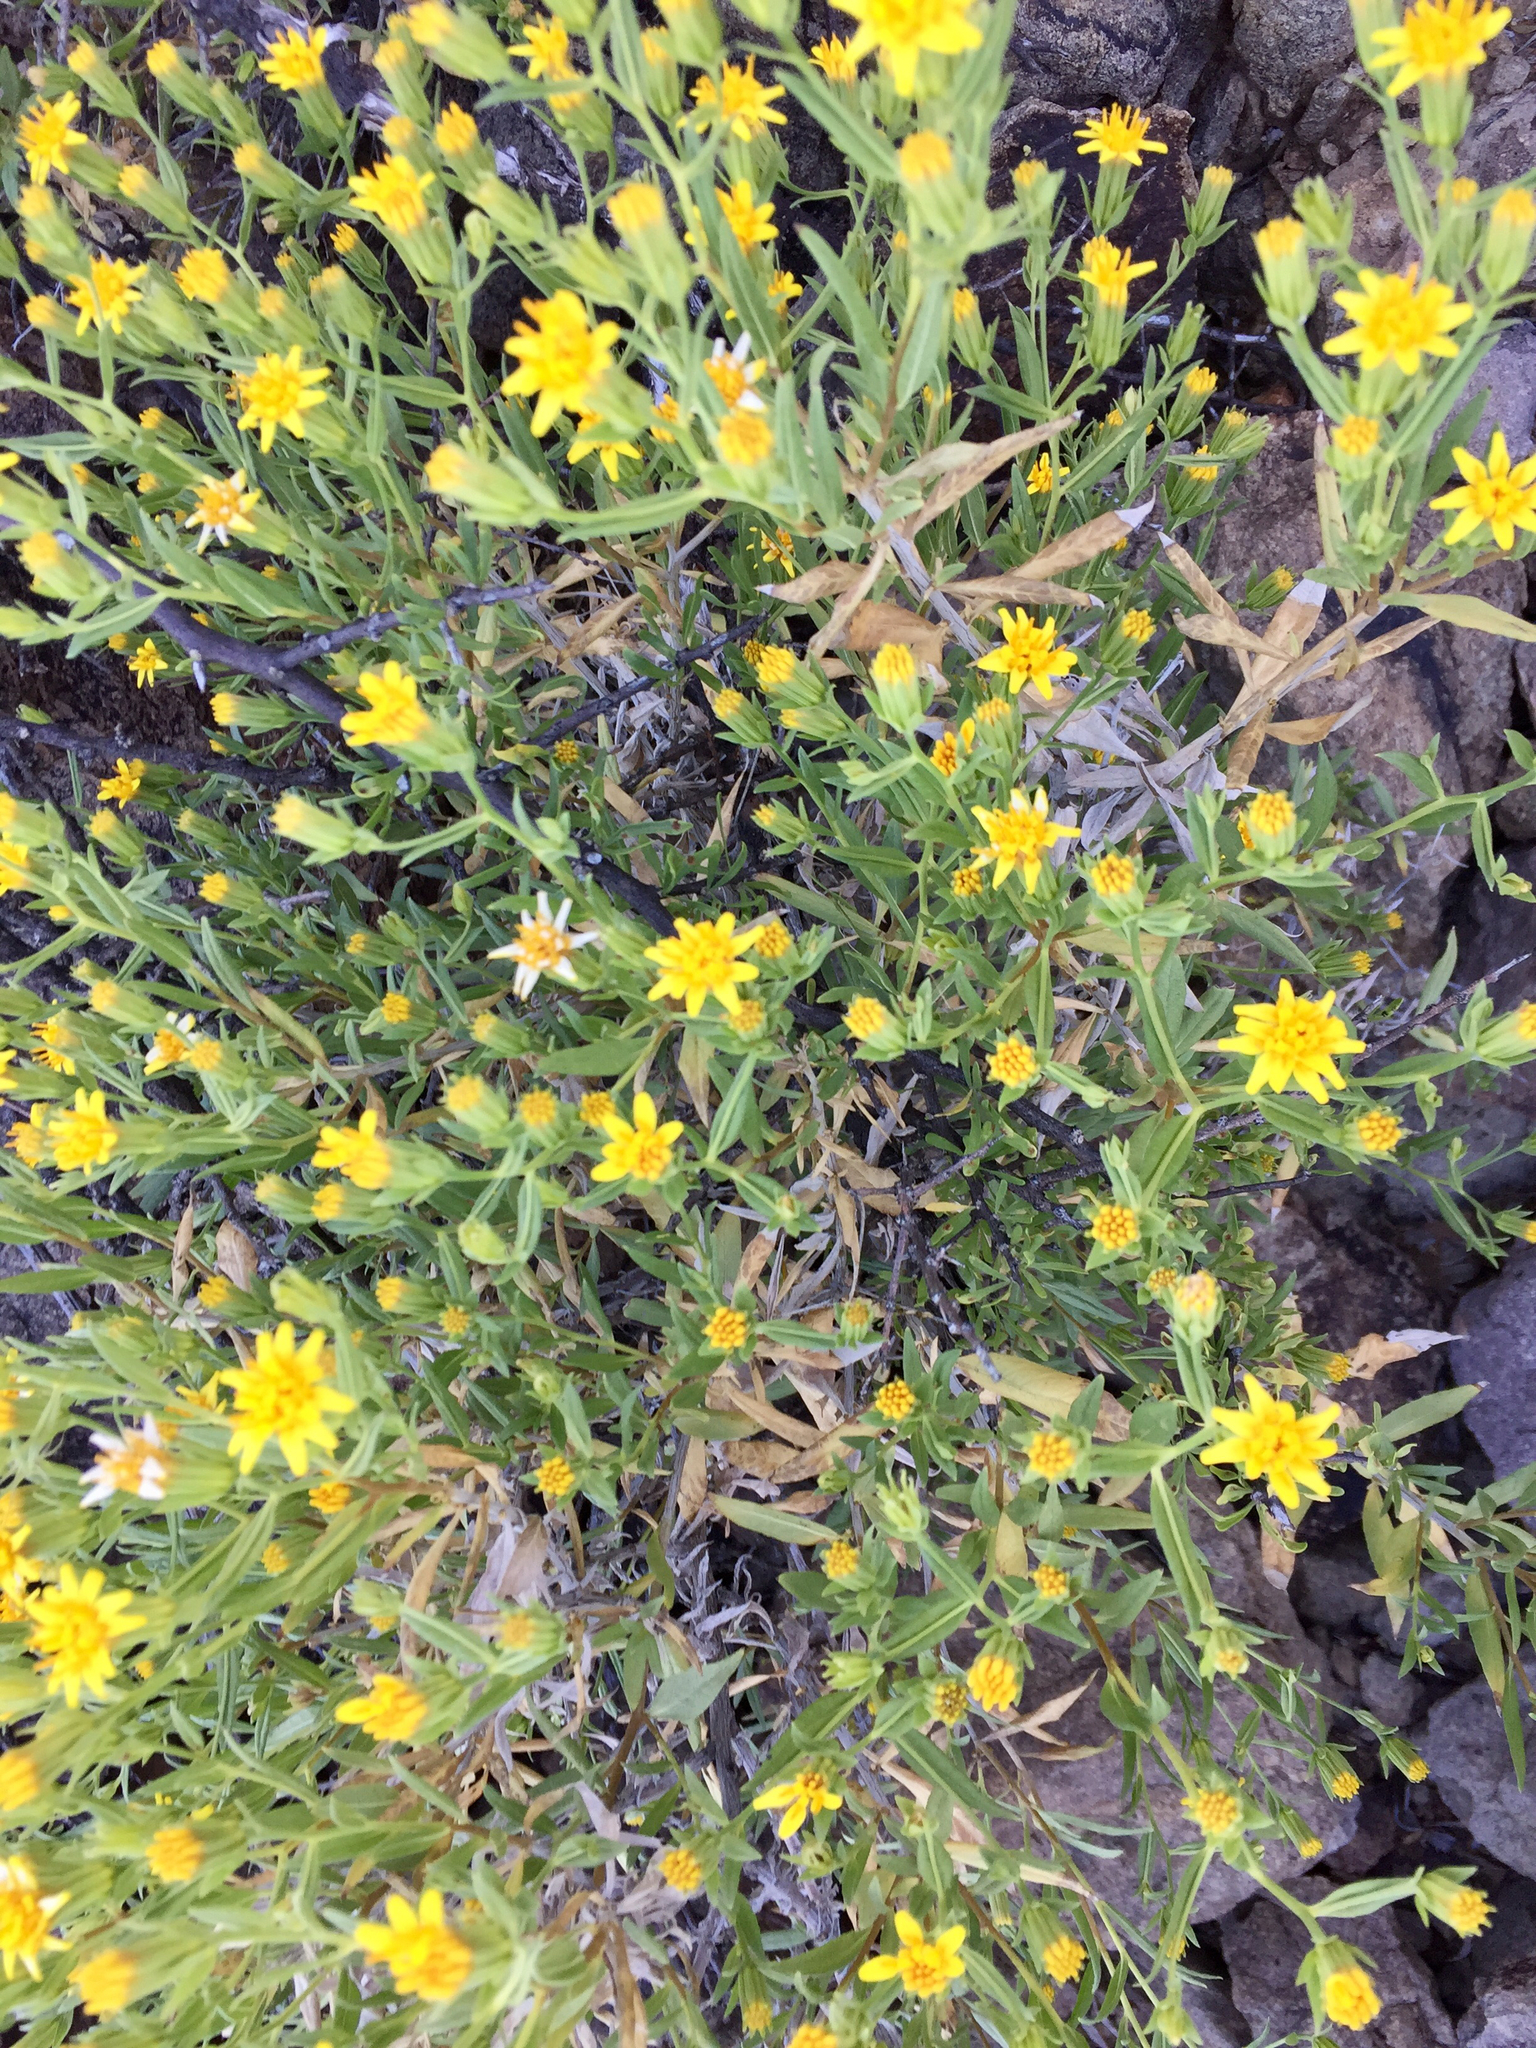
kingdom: Plantae
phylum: Tracheophyta
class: Magnoliopsida
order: Asterales
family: Asteraceae
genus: Trixis
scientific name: Trixis californica
